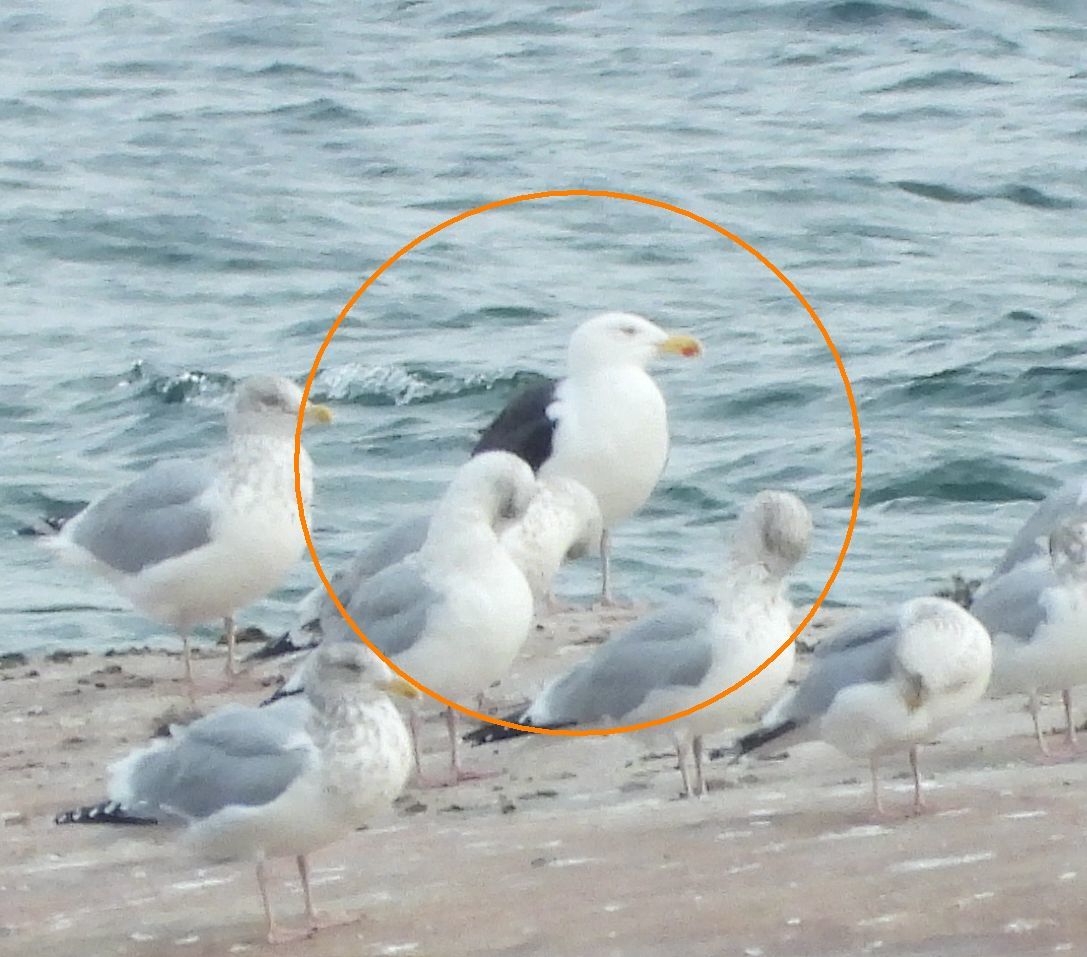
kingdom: Animalia
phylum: Chordata
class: Aves
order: Charadriiformes
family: Laridae
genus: Larus
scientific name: Larus marinus
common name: Great black-backed gull
